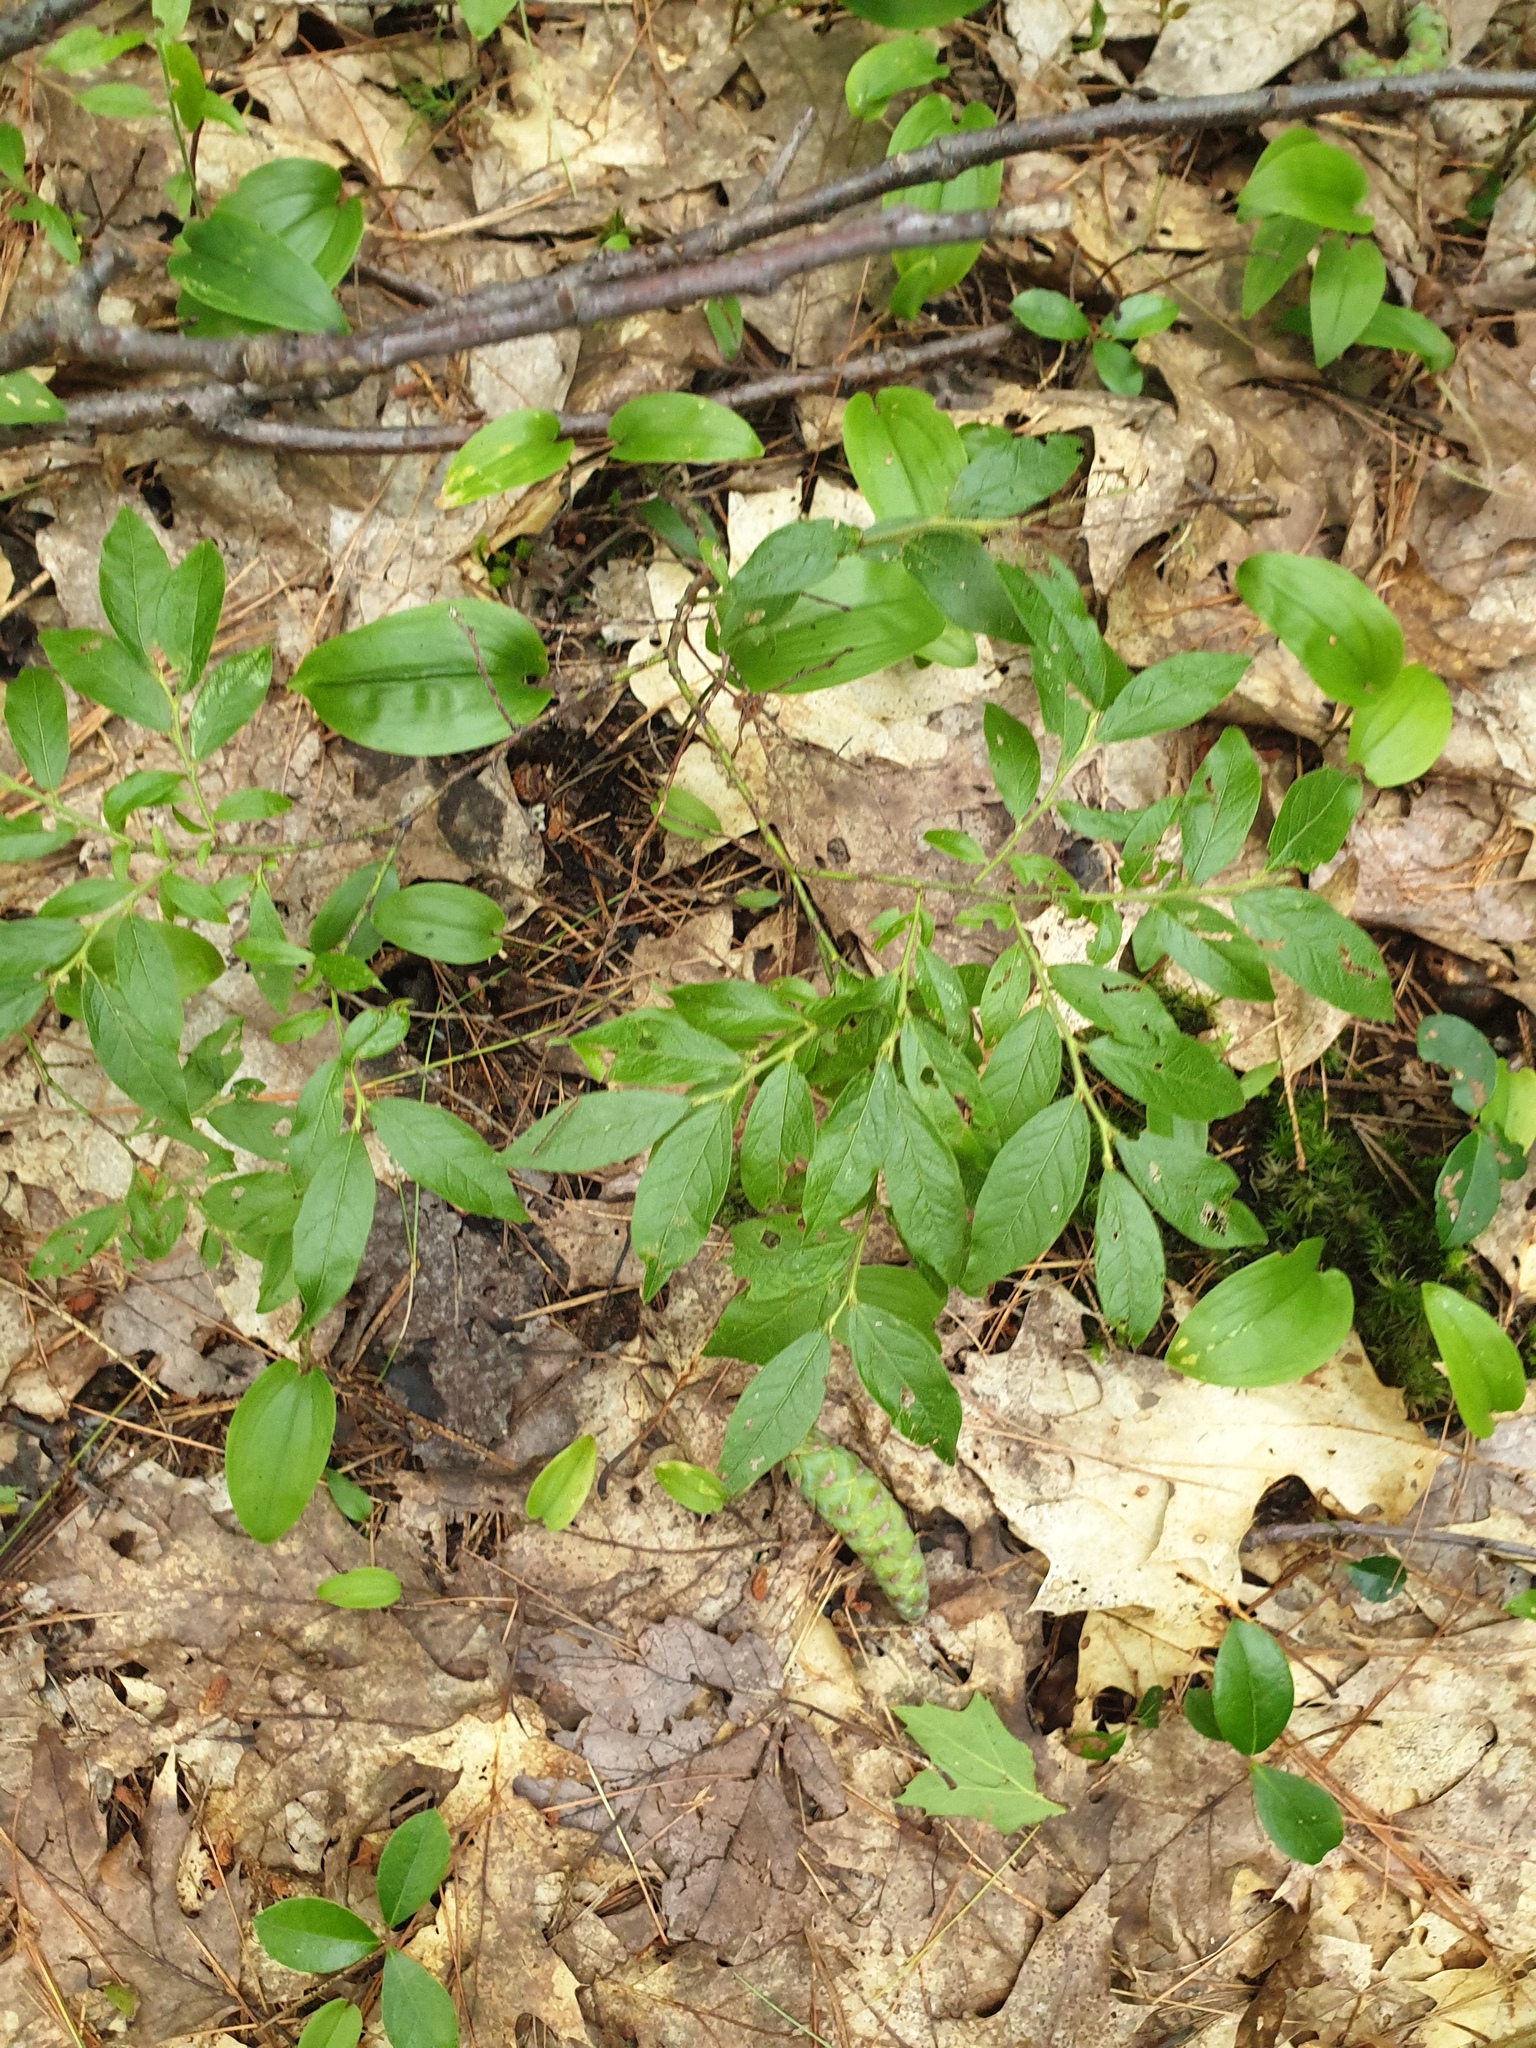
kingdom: Plantae
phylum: Tracheophyta
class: Liliopsida
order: Asparagales
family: Asparagaceae
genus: Maianthemum
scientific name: Maianthemum canadense
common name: False lily-of-the-valley
